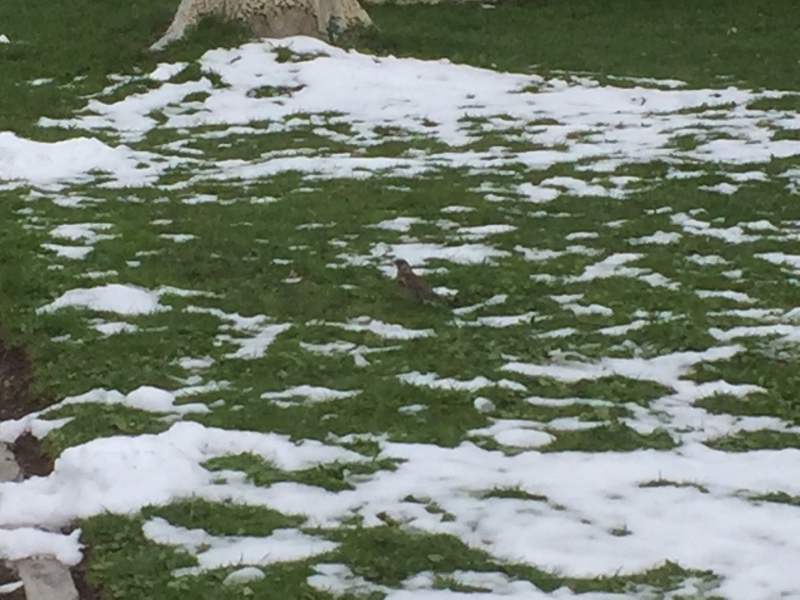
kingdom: Animalia
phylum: Chordata
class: Aves
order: Passeriformes
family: Turdidae
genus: Turdus
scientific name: Turdus pilaris
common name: Fieldfare
